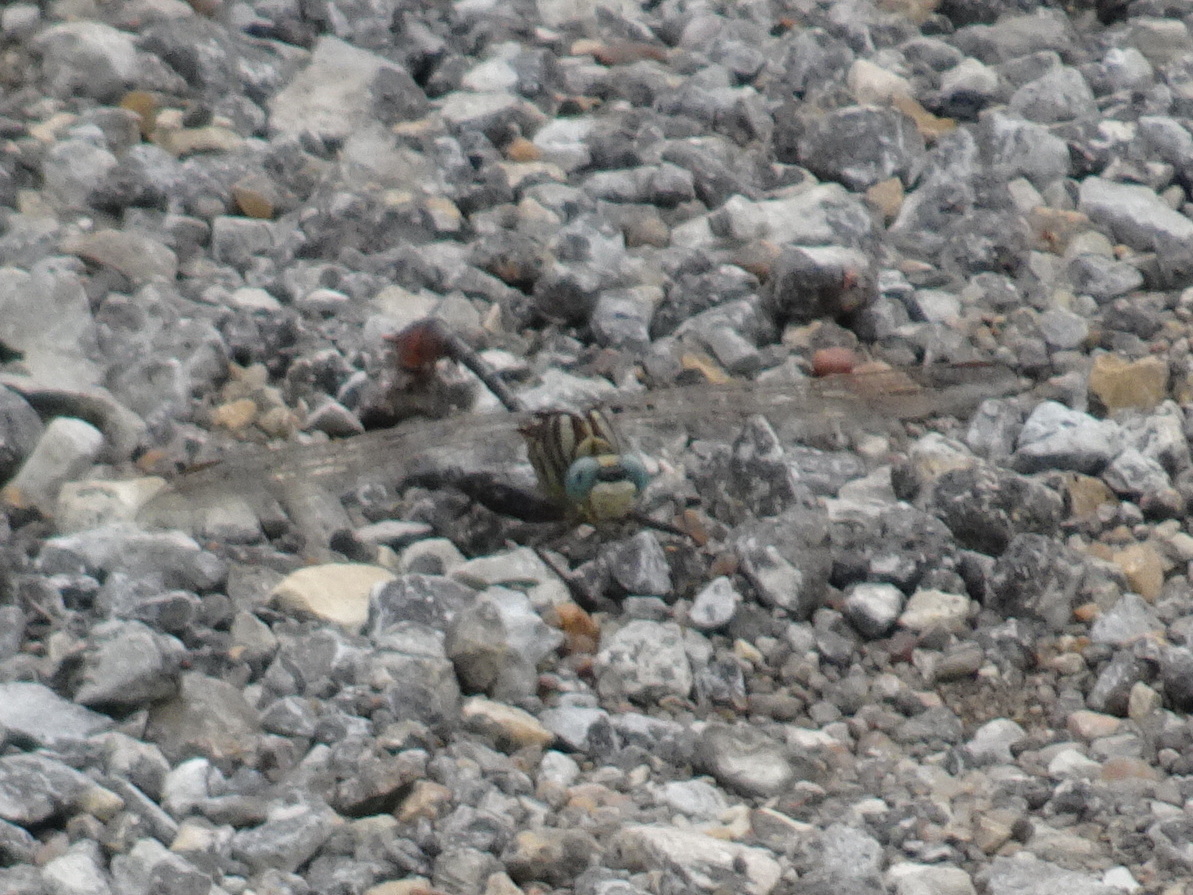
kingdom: Animalia
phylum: Arthropoda
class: Insecta
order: Odonata
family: Gomphidae
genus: Dromogomphus
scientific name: Dromogomphus spoliatus
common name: Flag-tailed spinyleg
